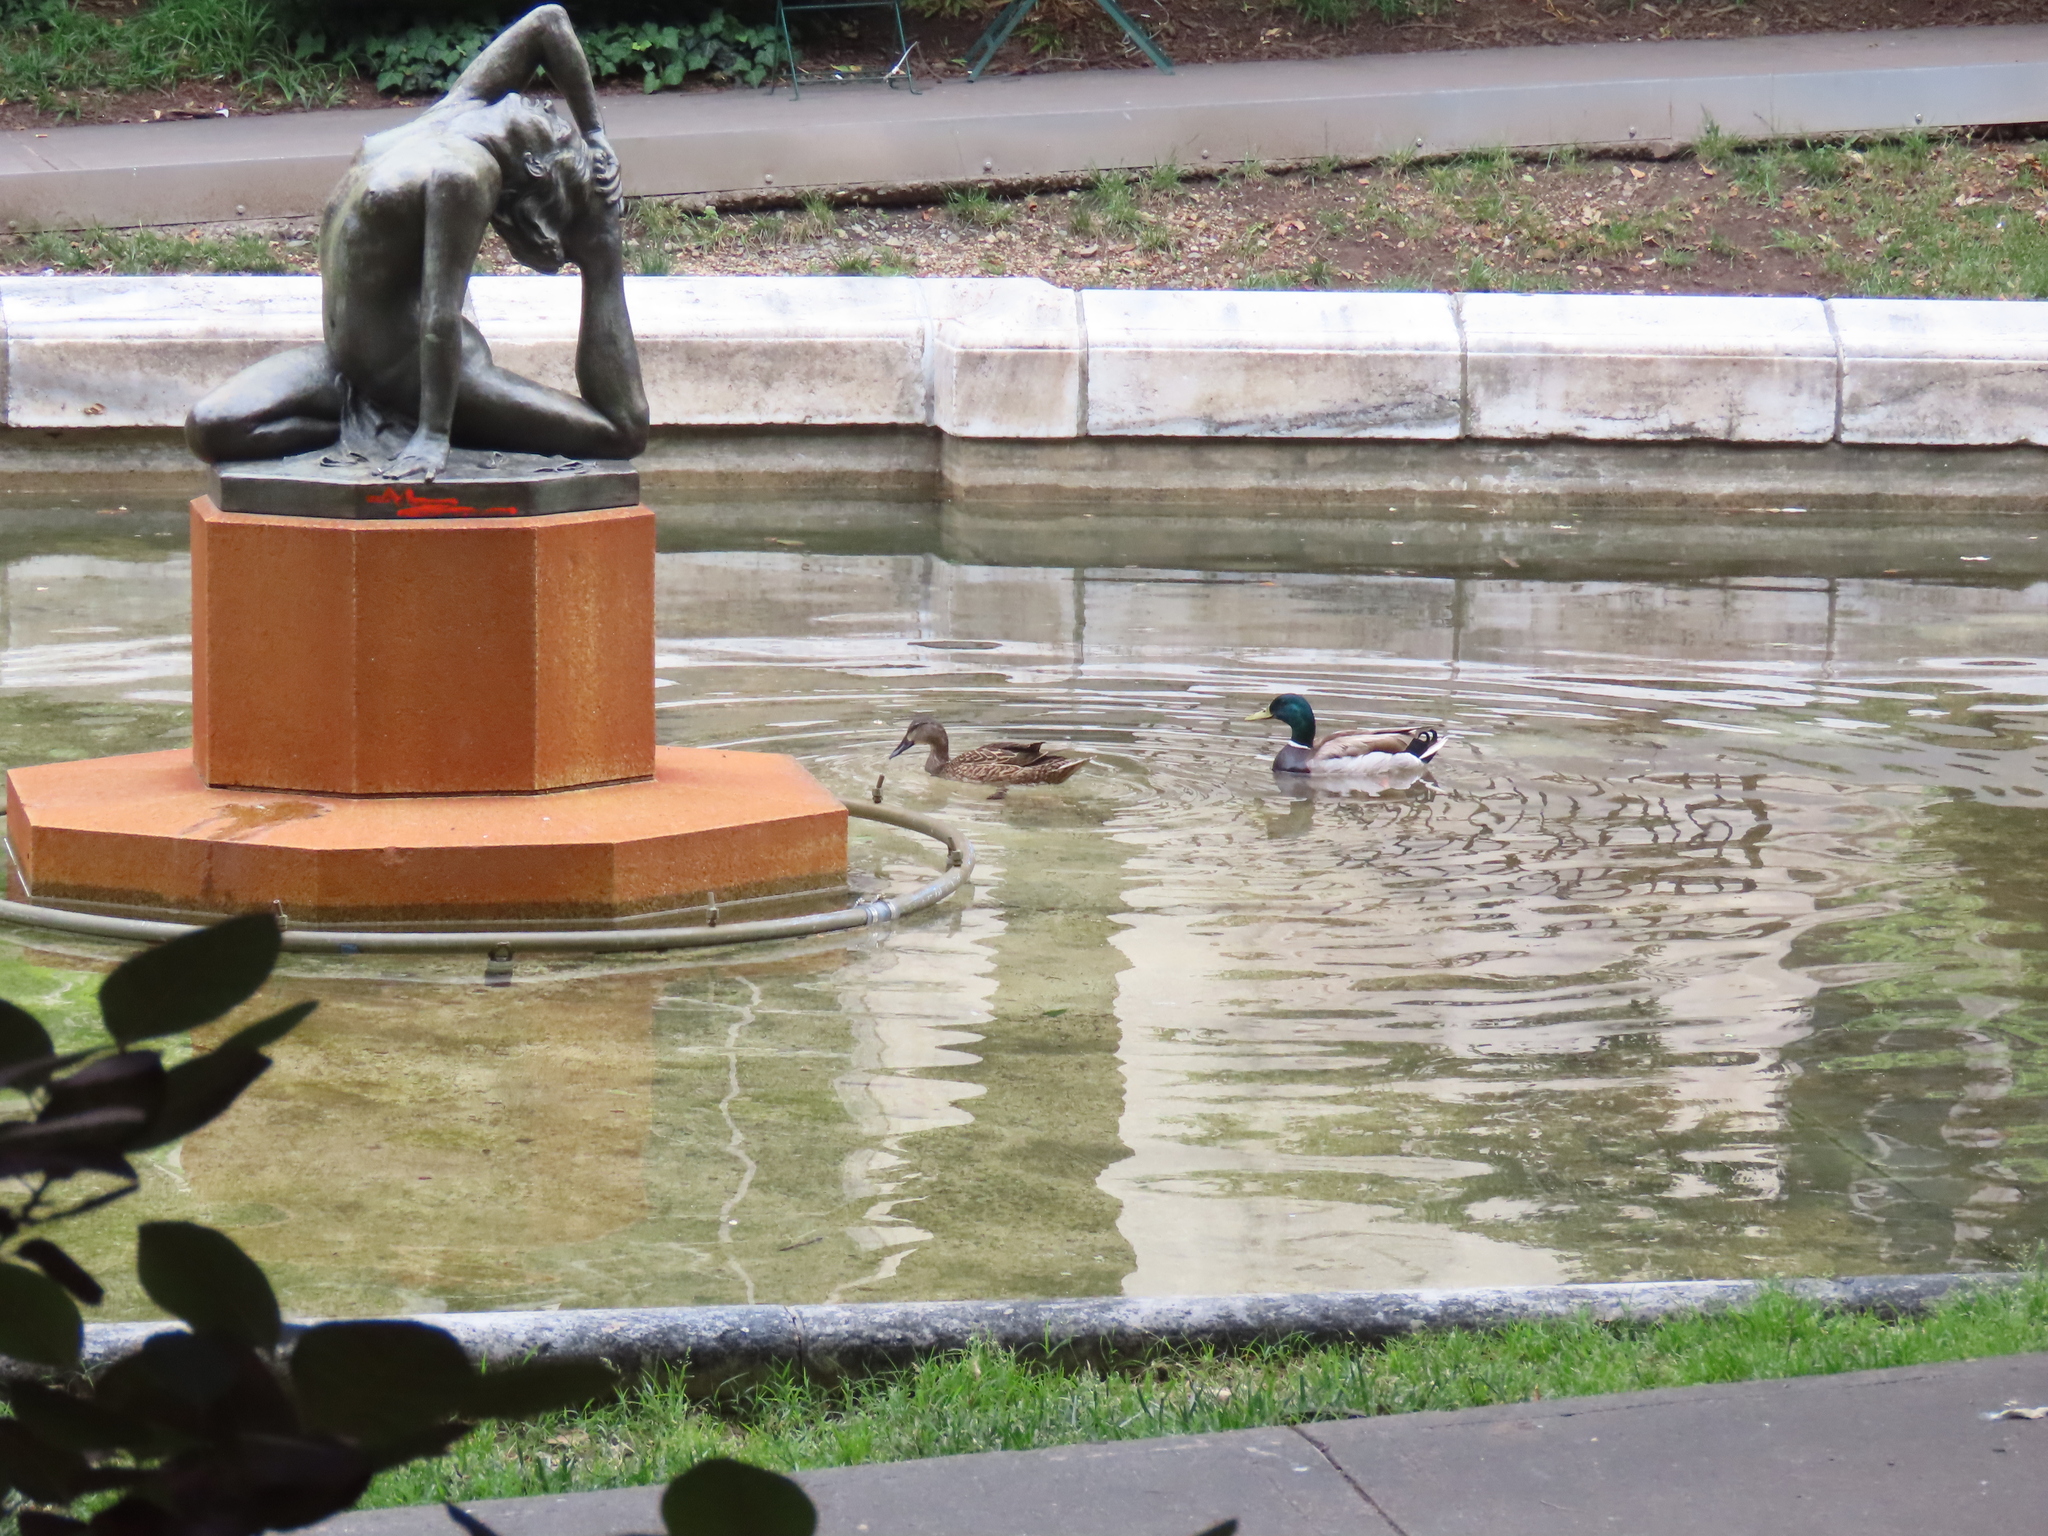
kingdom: Animalia
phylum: Chordata
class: Aves
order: Anseriformes
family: Anatidae
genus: Anas
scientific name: Anas platyrhynchos
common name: Mallard
